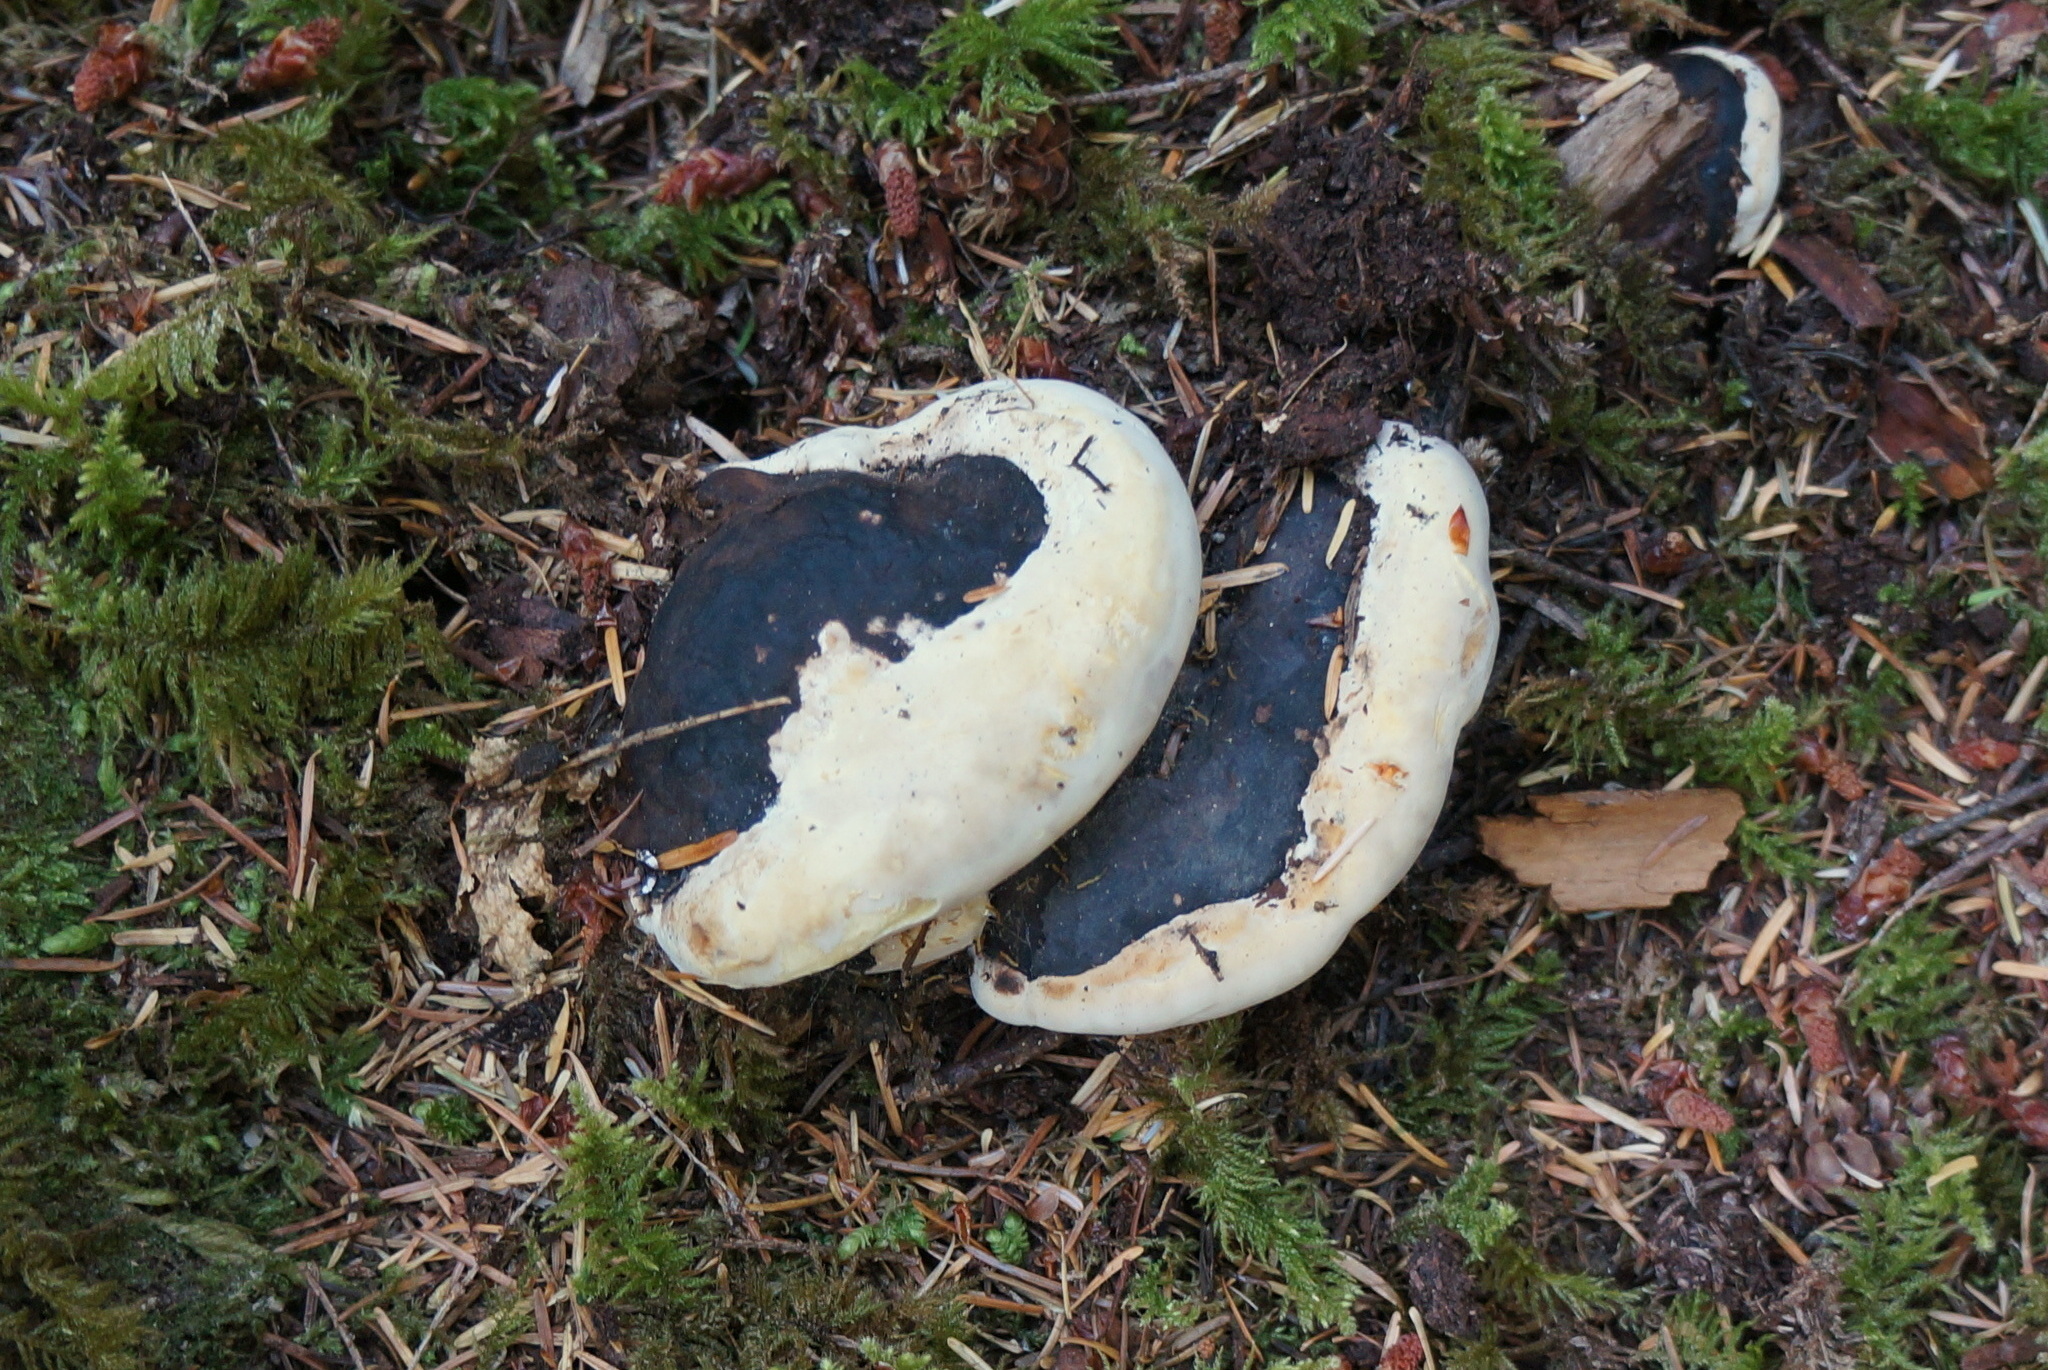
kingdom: Fungi
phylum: Basidiomycota
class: Agaricomycetes
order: Polyporales
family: Fomitopsidaceae
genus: Fomitopsis
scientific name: Fomitopsis mounceae
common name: Northern red belt
